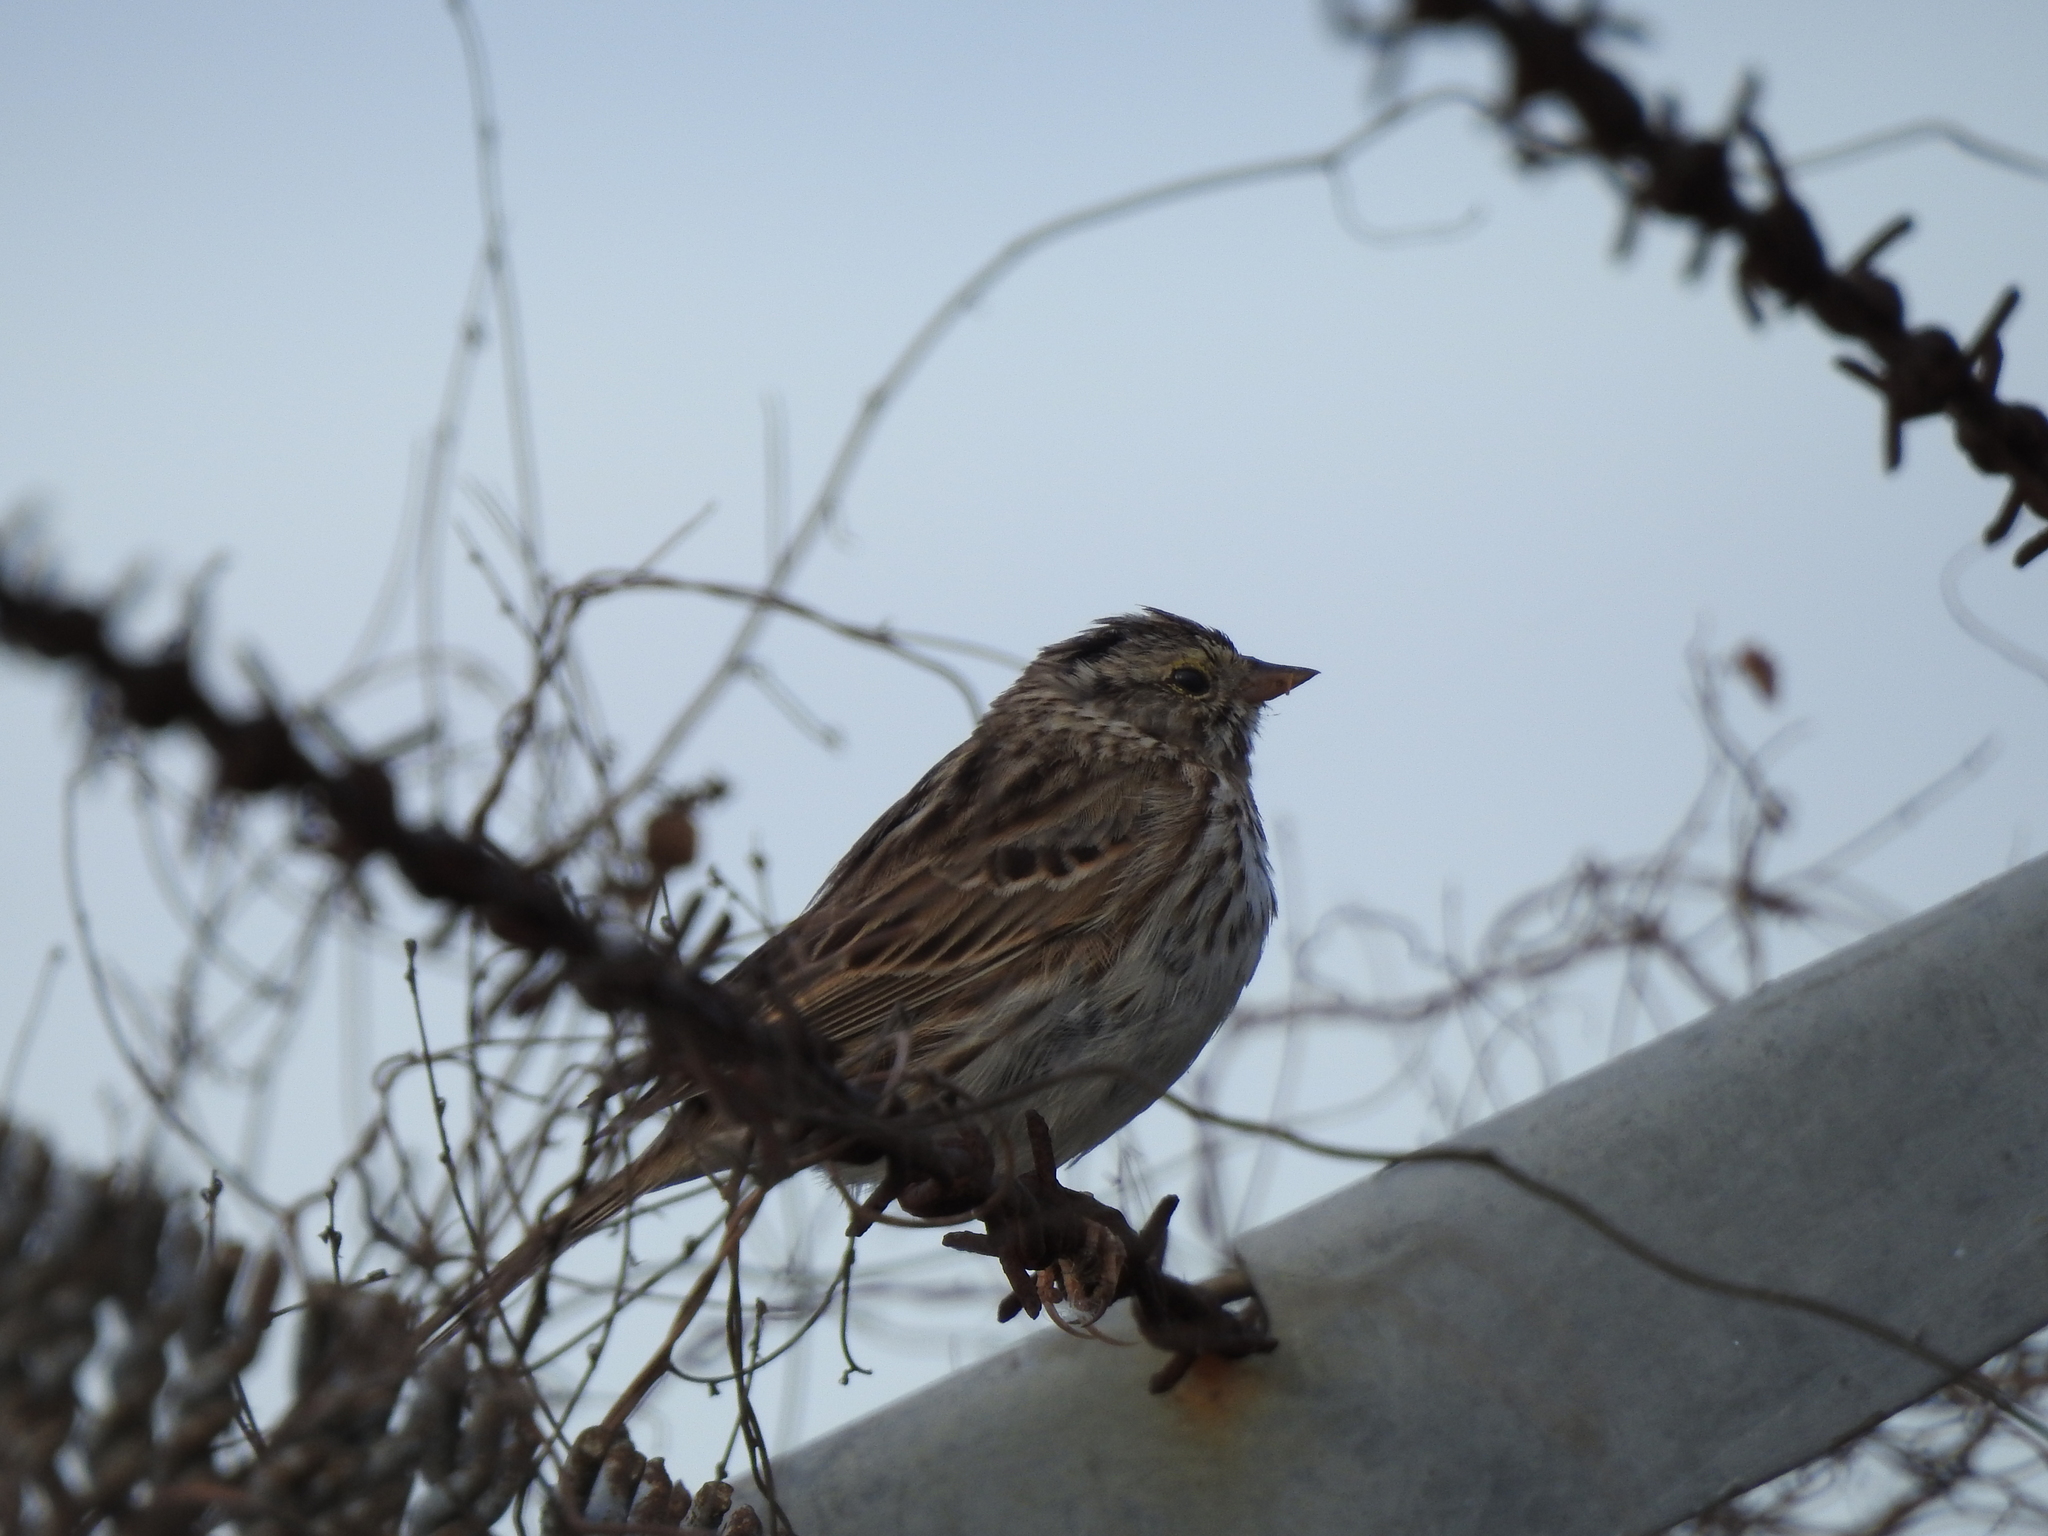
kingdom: Animalia
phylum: Chordata
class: Aves
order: Passeriformes
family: Passerellidae
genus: Passerculus
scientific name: Passerculus sandwichensis
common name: Savannah sparrow
